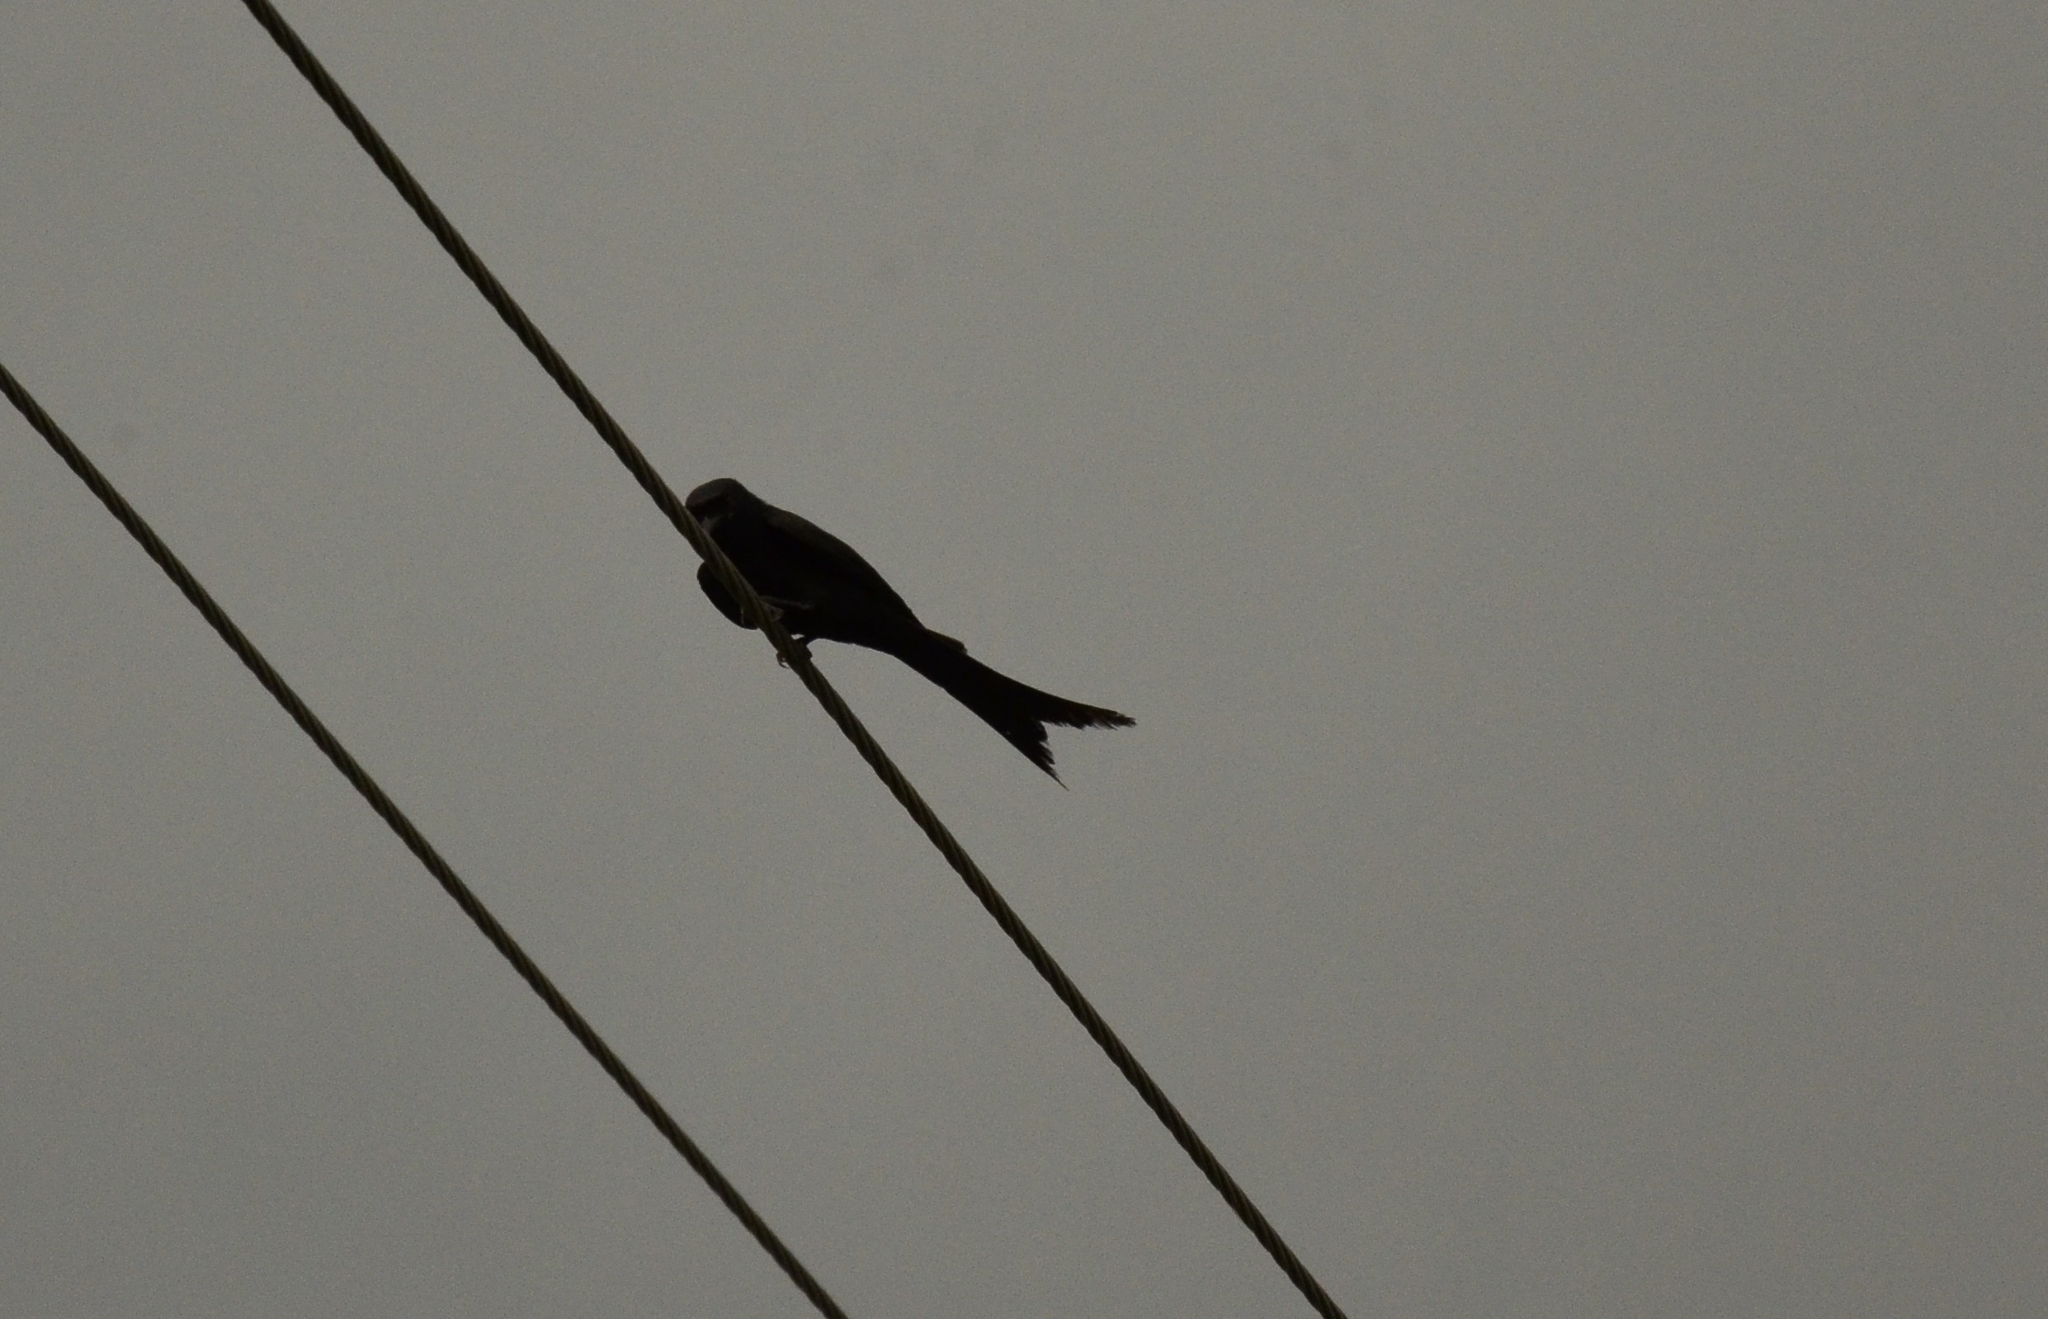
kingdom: Animalia
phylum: Chordata
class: Aves
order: Passeriformes
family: Dicruridae
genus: Dicrurus
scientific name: Dicrurus macrocercus
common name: Black drongo
